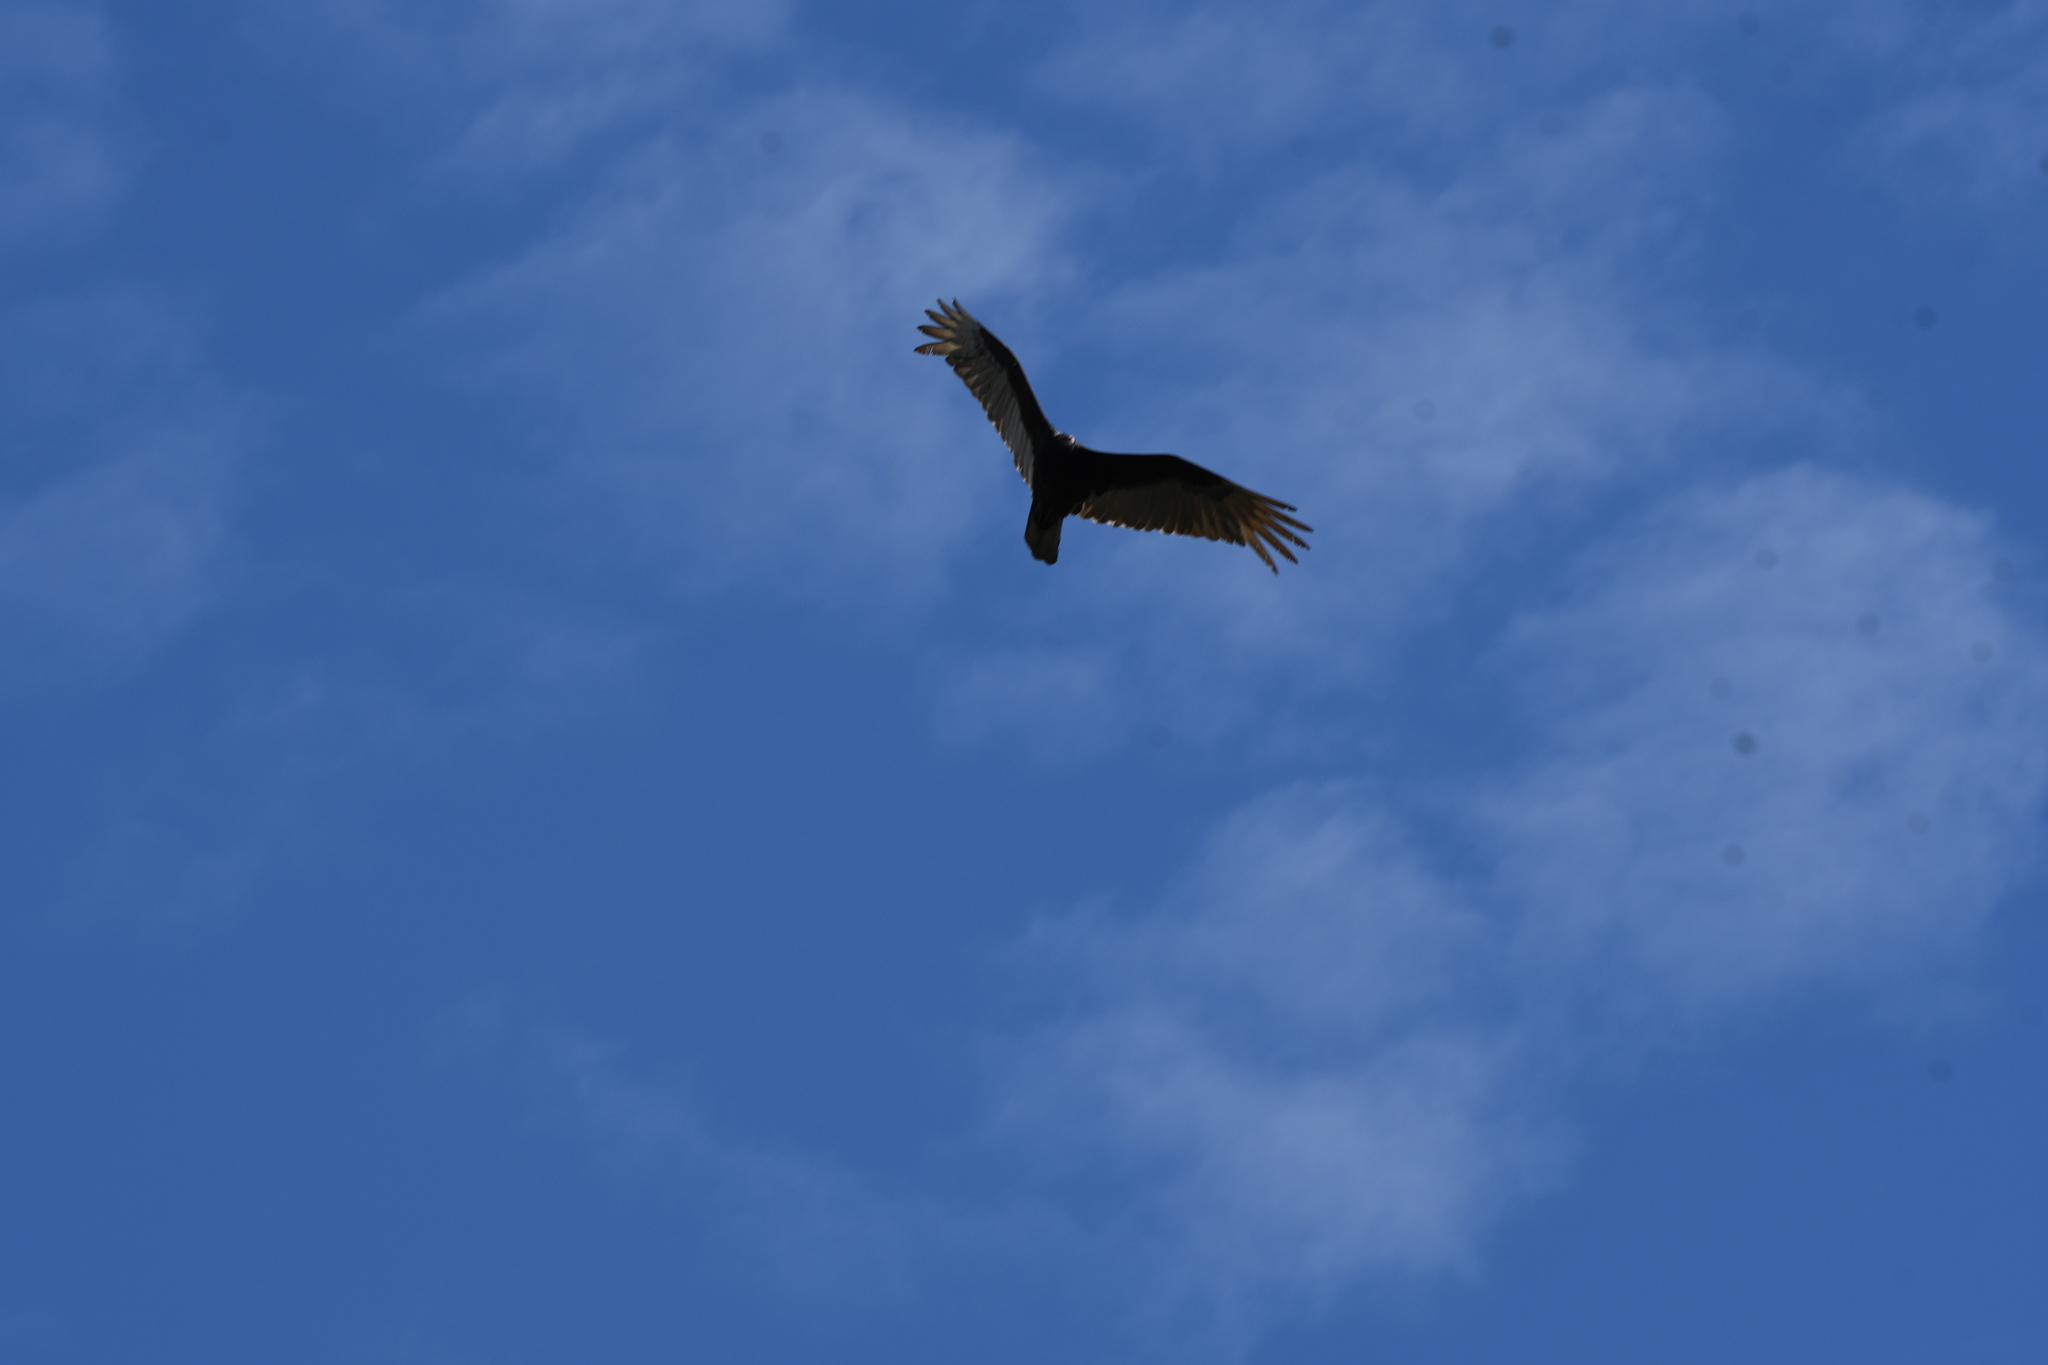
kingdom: Animalia
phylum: Chordata
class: Aves
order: Accipitriformes
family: Cathartidae
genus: Cathartes
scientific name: Cathartes aura
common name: Turkey vulture
